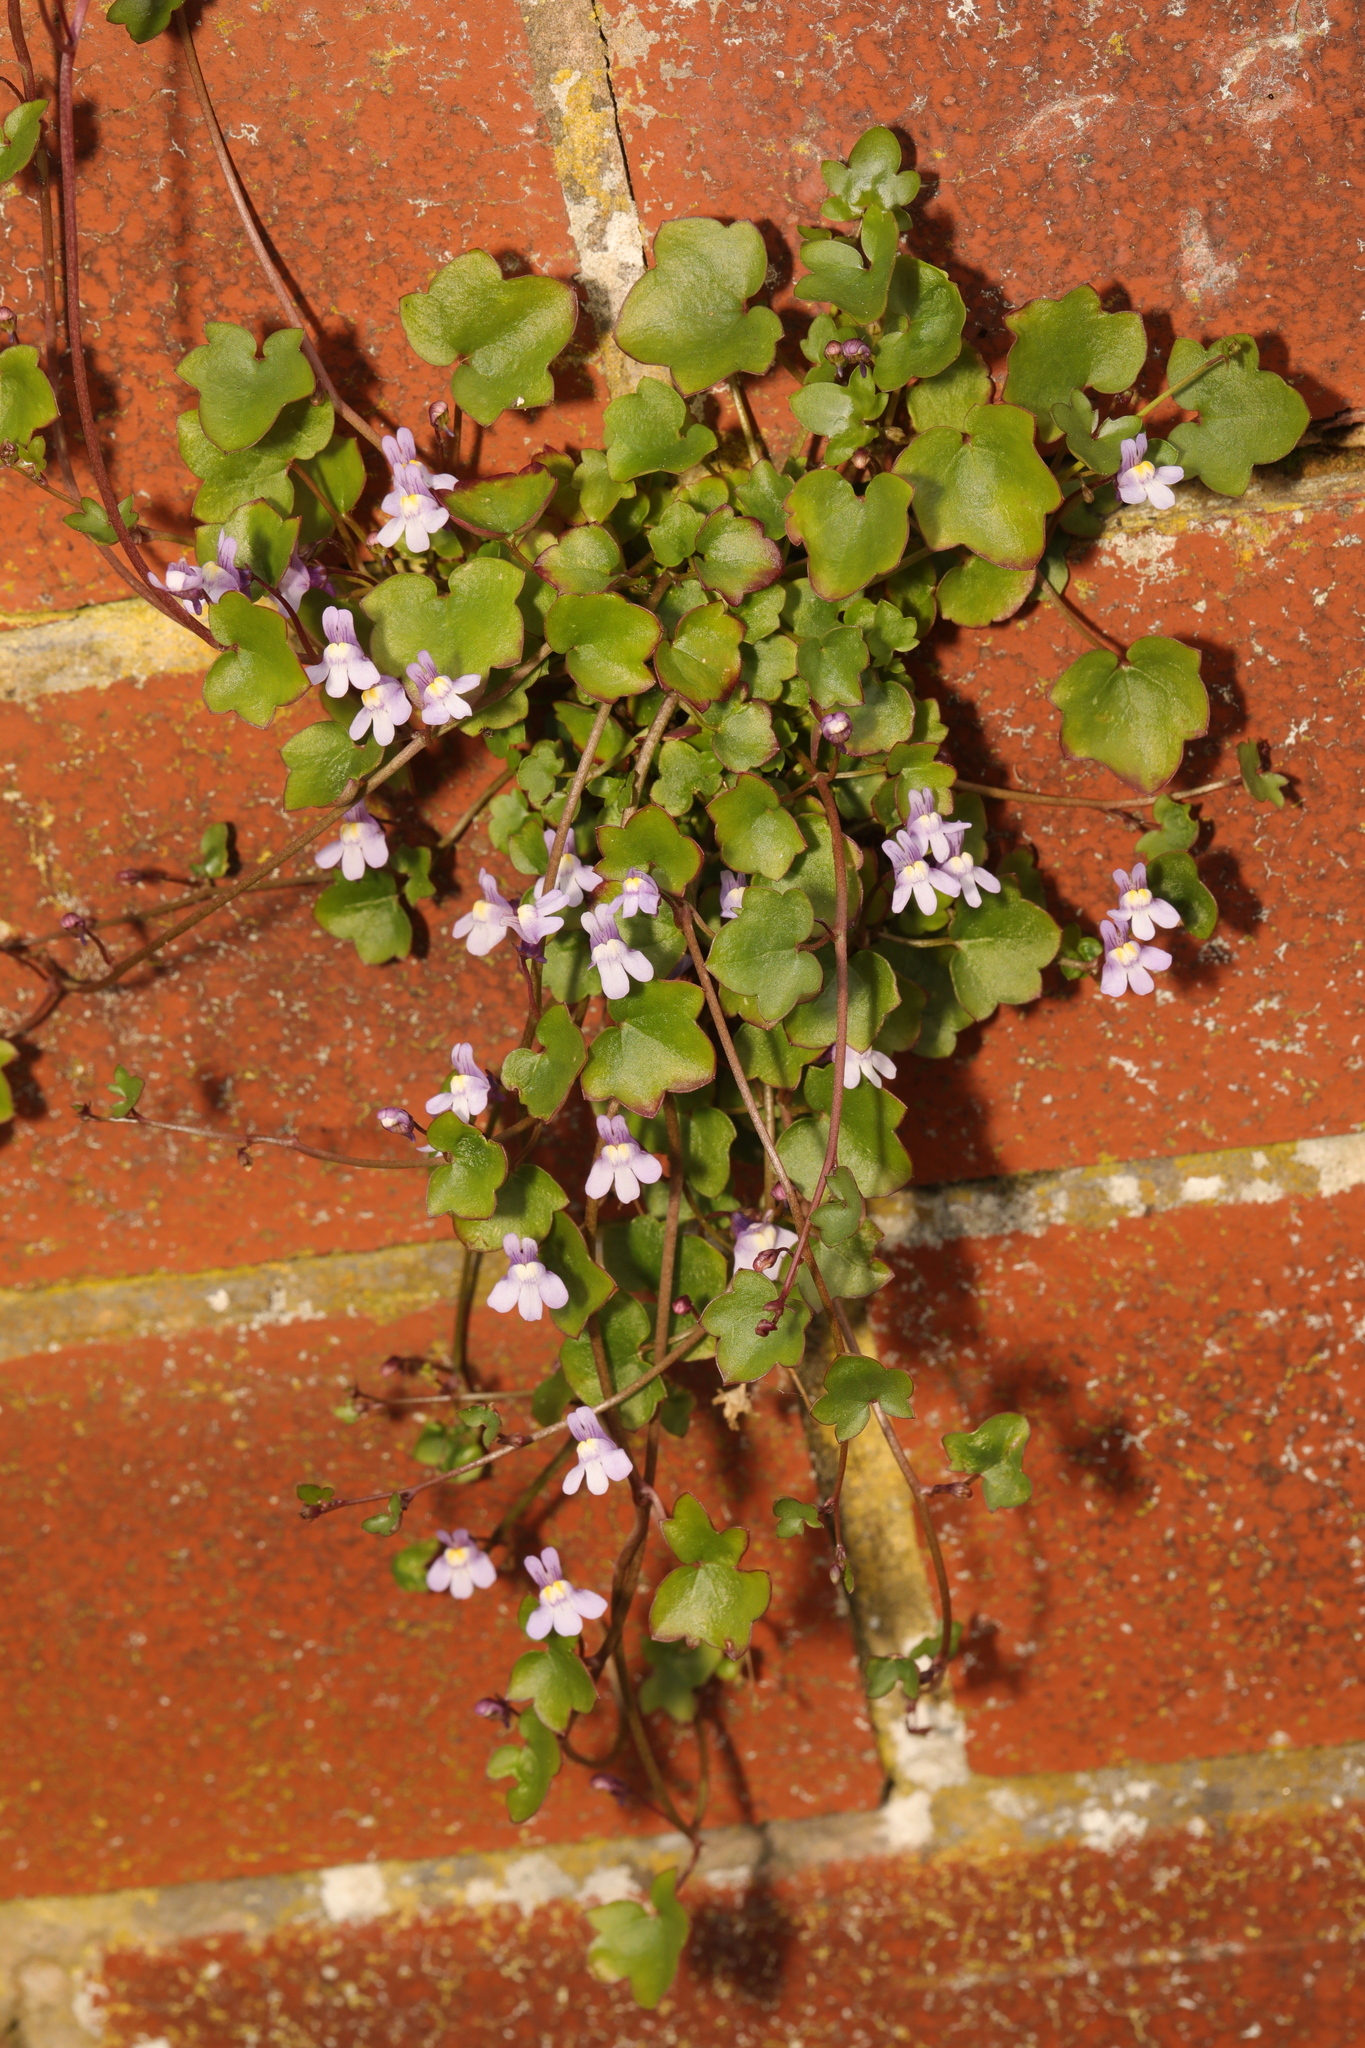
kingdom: Plantae
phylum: Tracheophyta
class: Magnoliopsida
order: Lamiales
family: Plantaginaceae
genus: Cymbalaria
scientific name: Cymbalaria muralis
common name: Ivy-leaved toadflax
